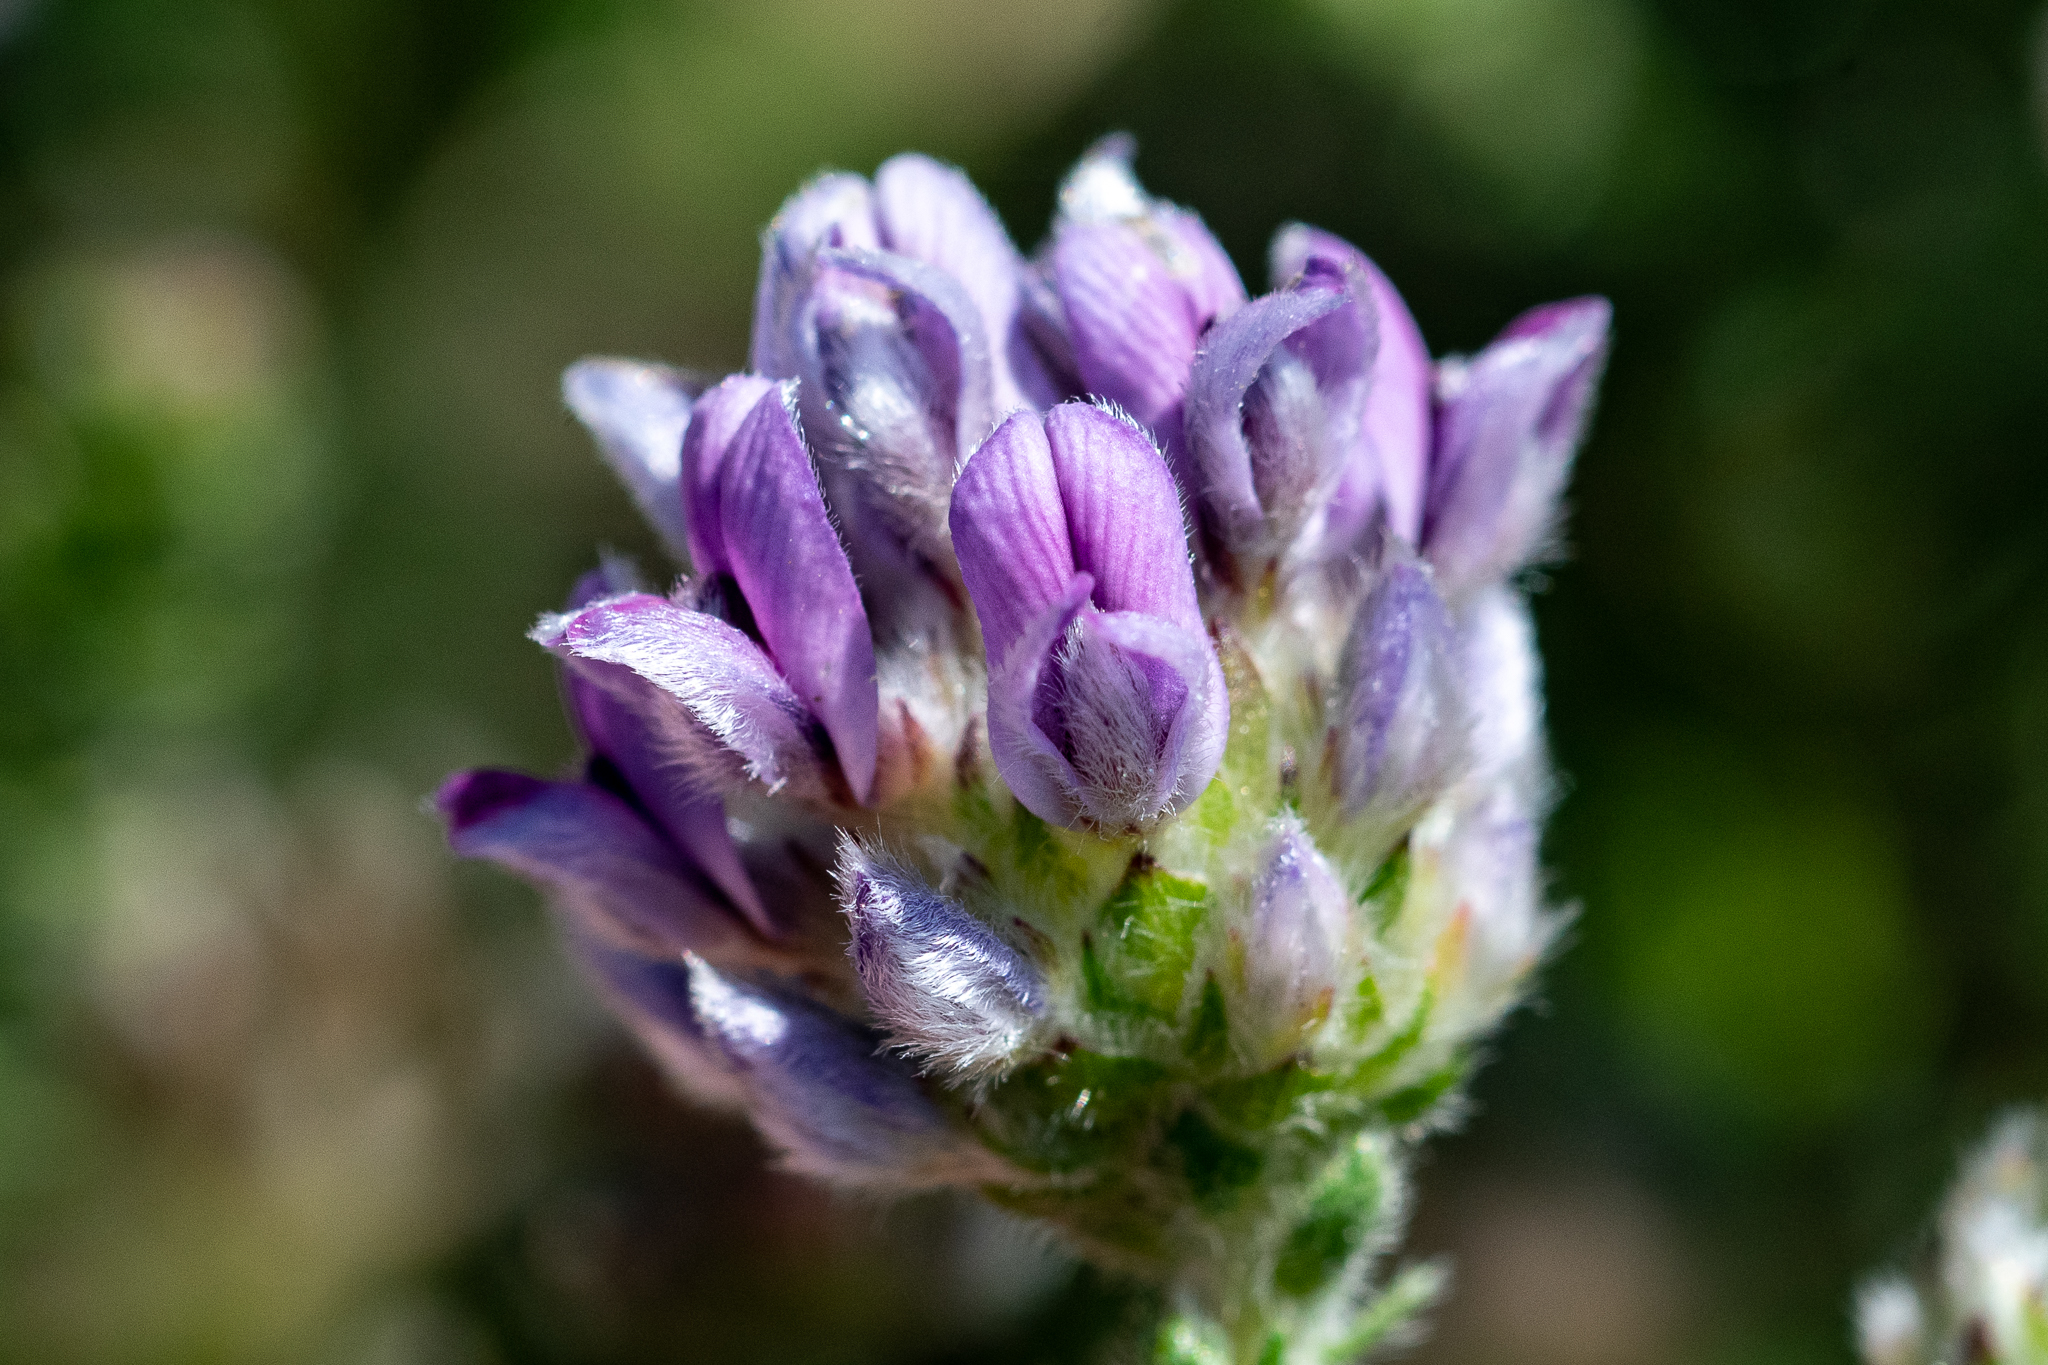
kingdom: Plantae
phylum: Tracheophyta
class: Magnoliopsida
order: Fabales
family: Fabaceae
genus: Aspalathus
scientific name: Aspalathus globulosa
